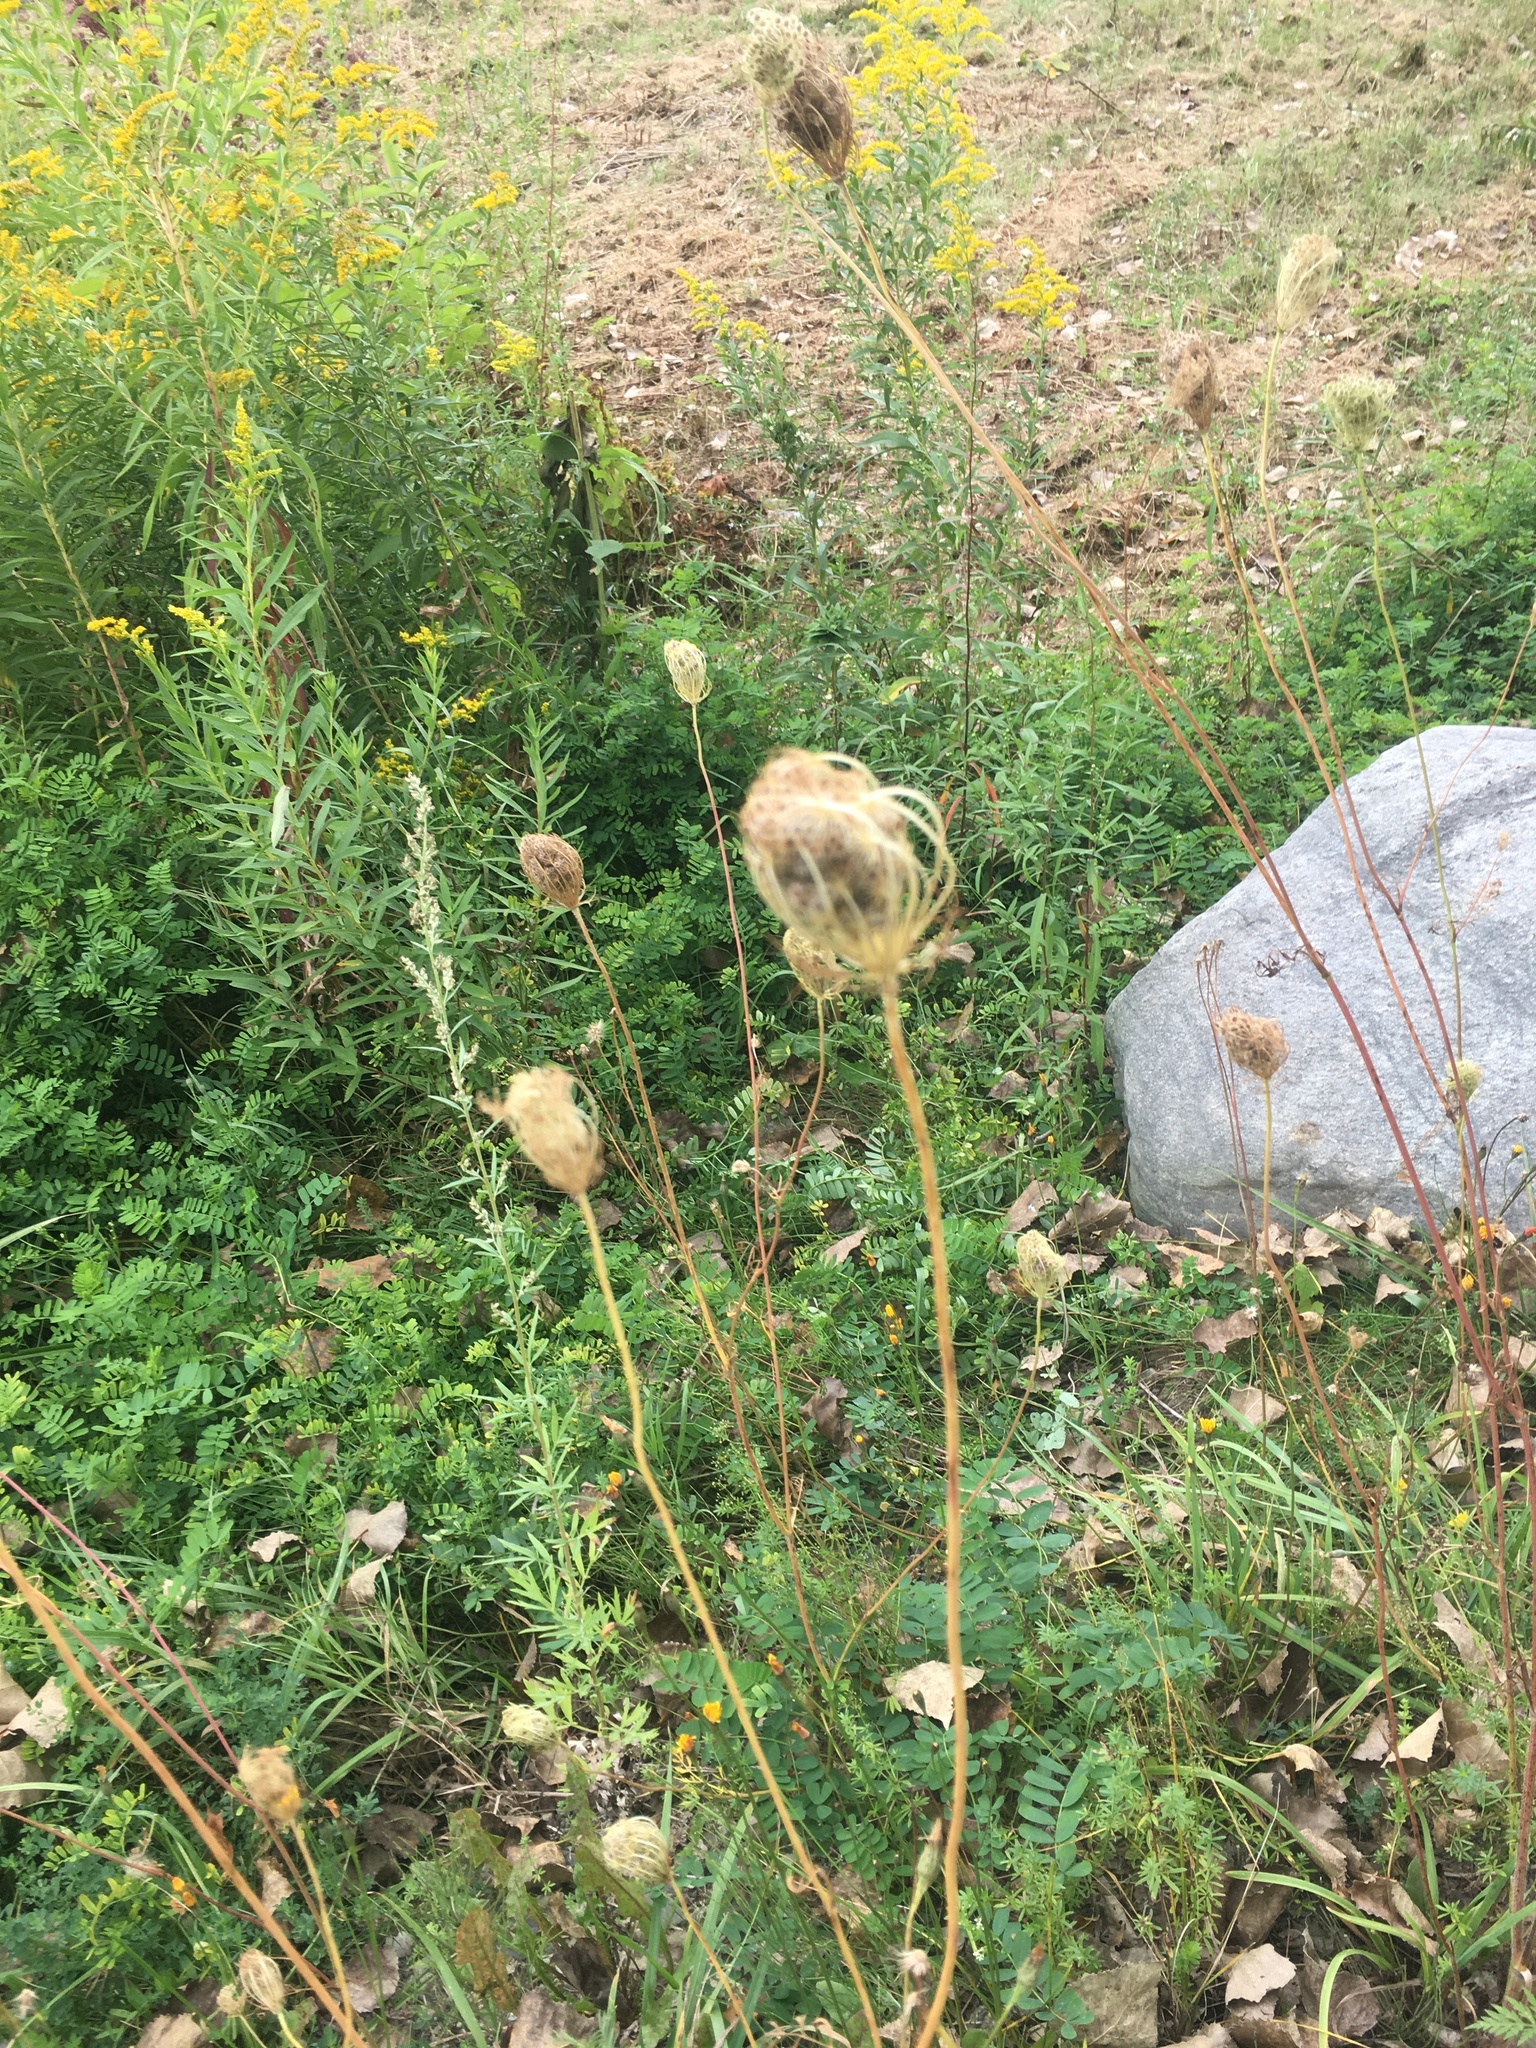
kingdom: Plantae
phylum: Tracheophyta
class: Magnoliopsida
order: Apiales
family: Apiaceae
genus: Daucus
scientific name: Daucus carota
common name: Wild carrot
